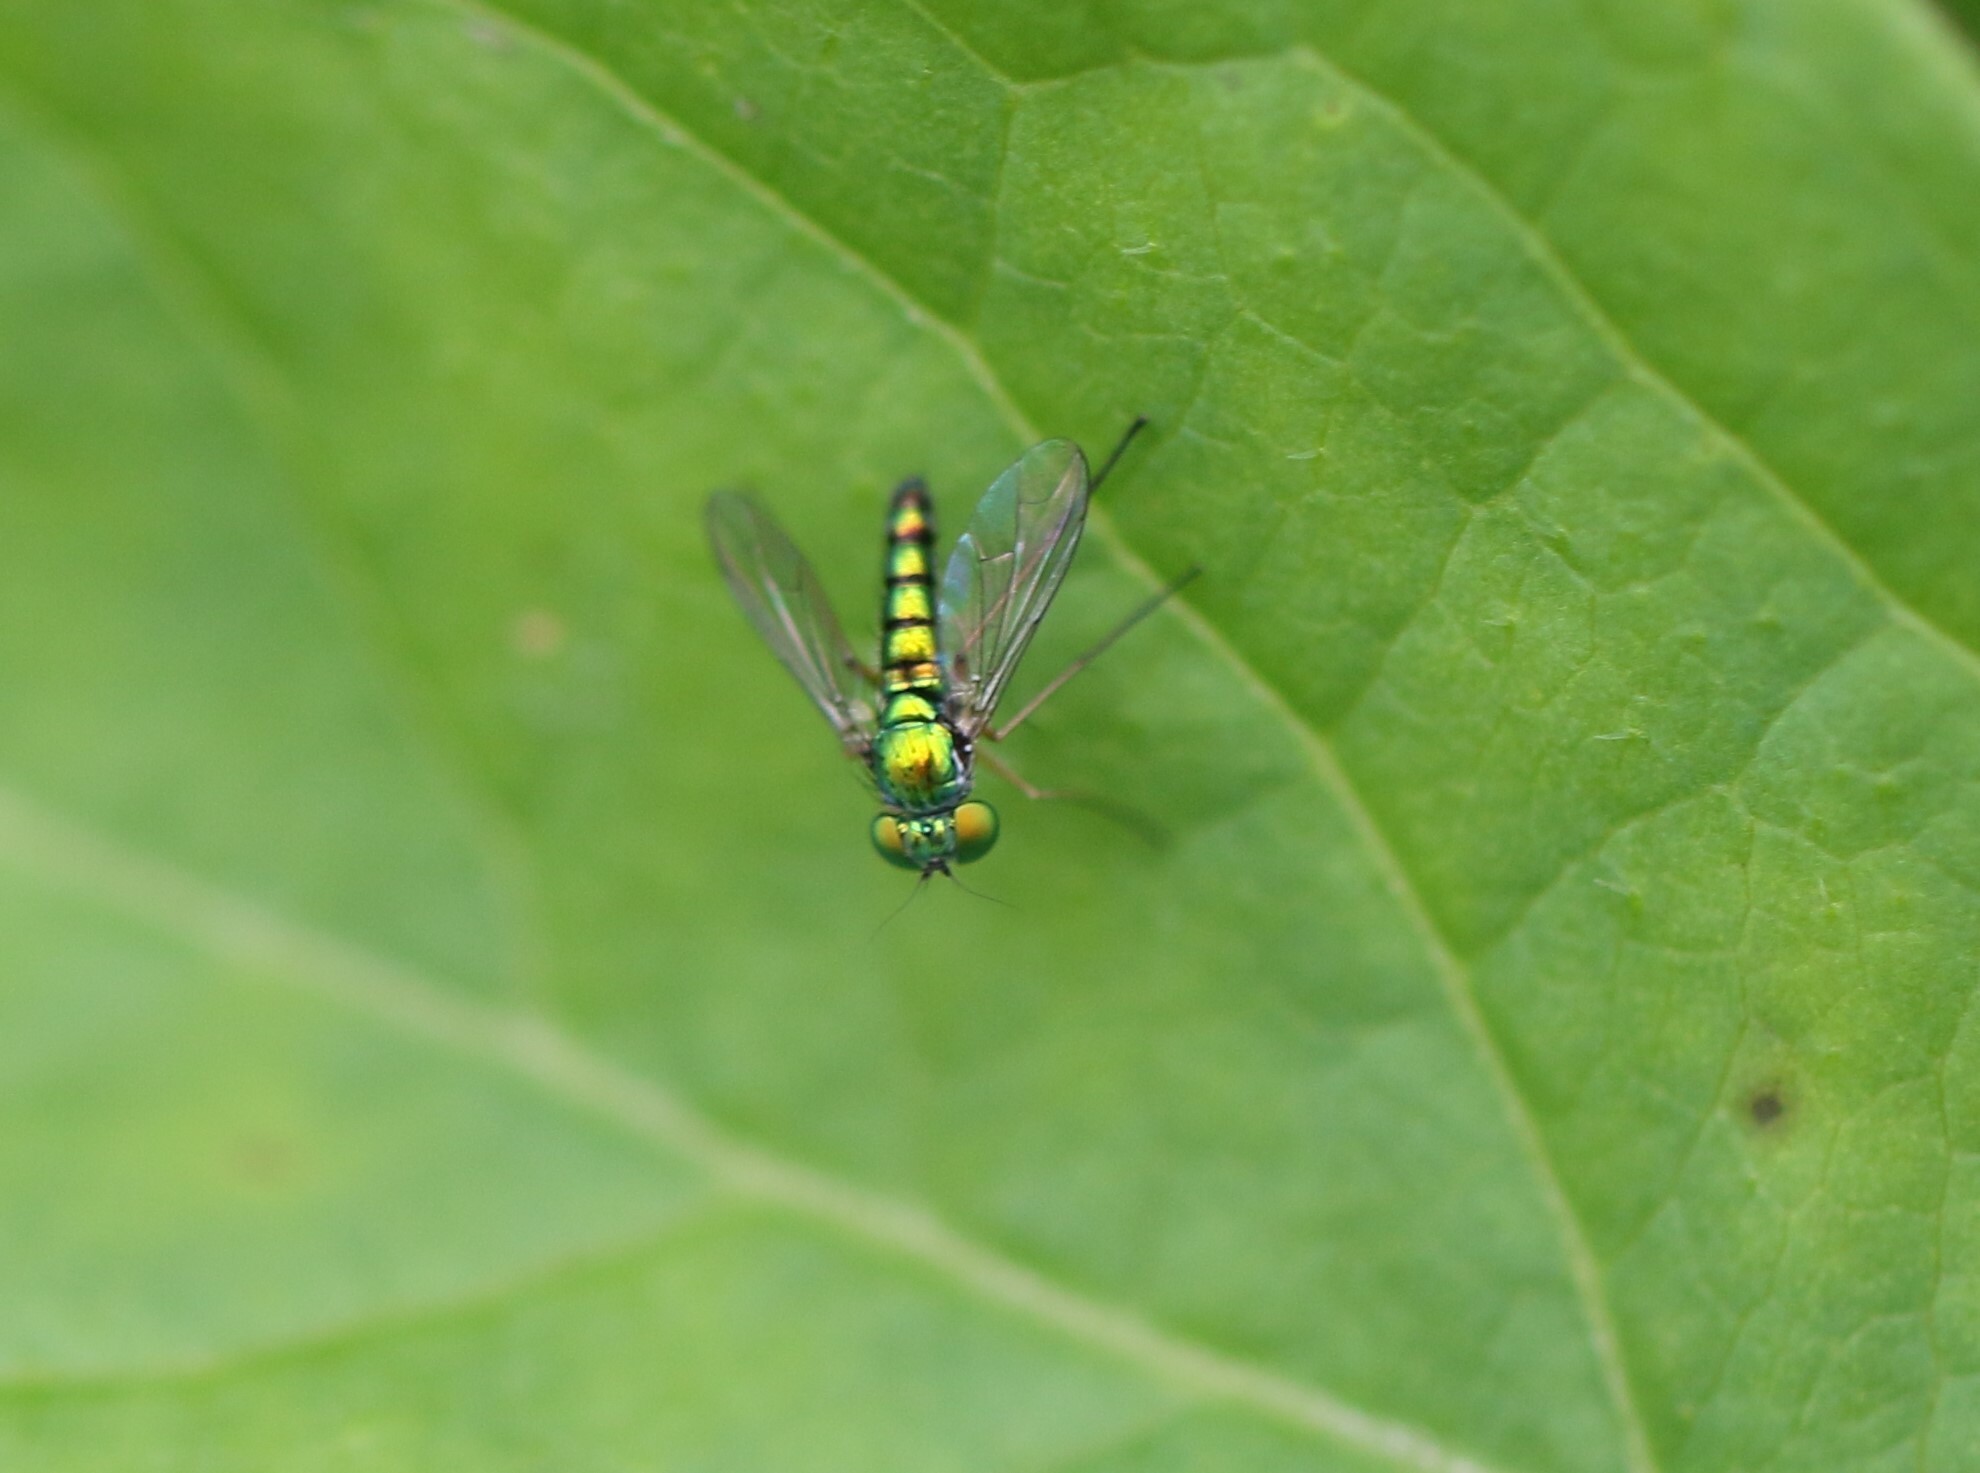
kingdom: Animalia
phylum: Arthropoda
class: Insecta
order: Diptera
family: Dolichopodidae
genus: Condylostylus
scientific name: Condylostylus flavipes
